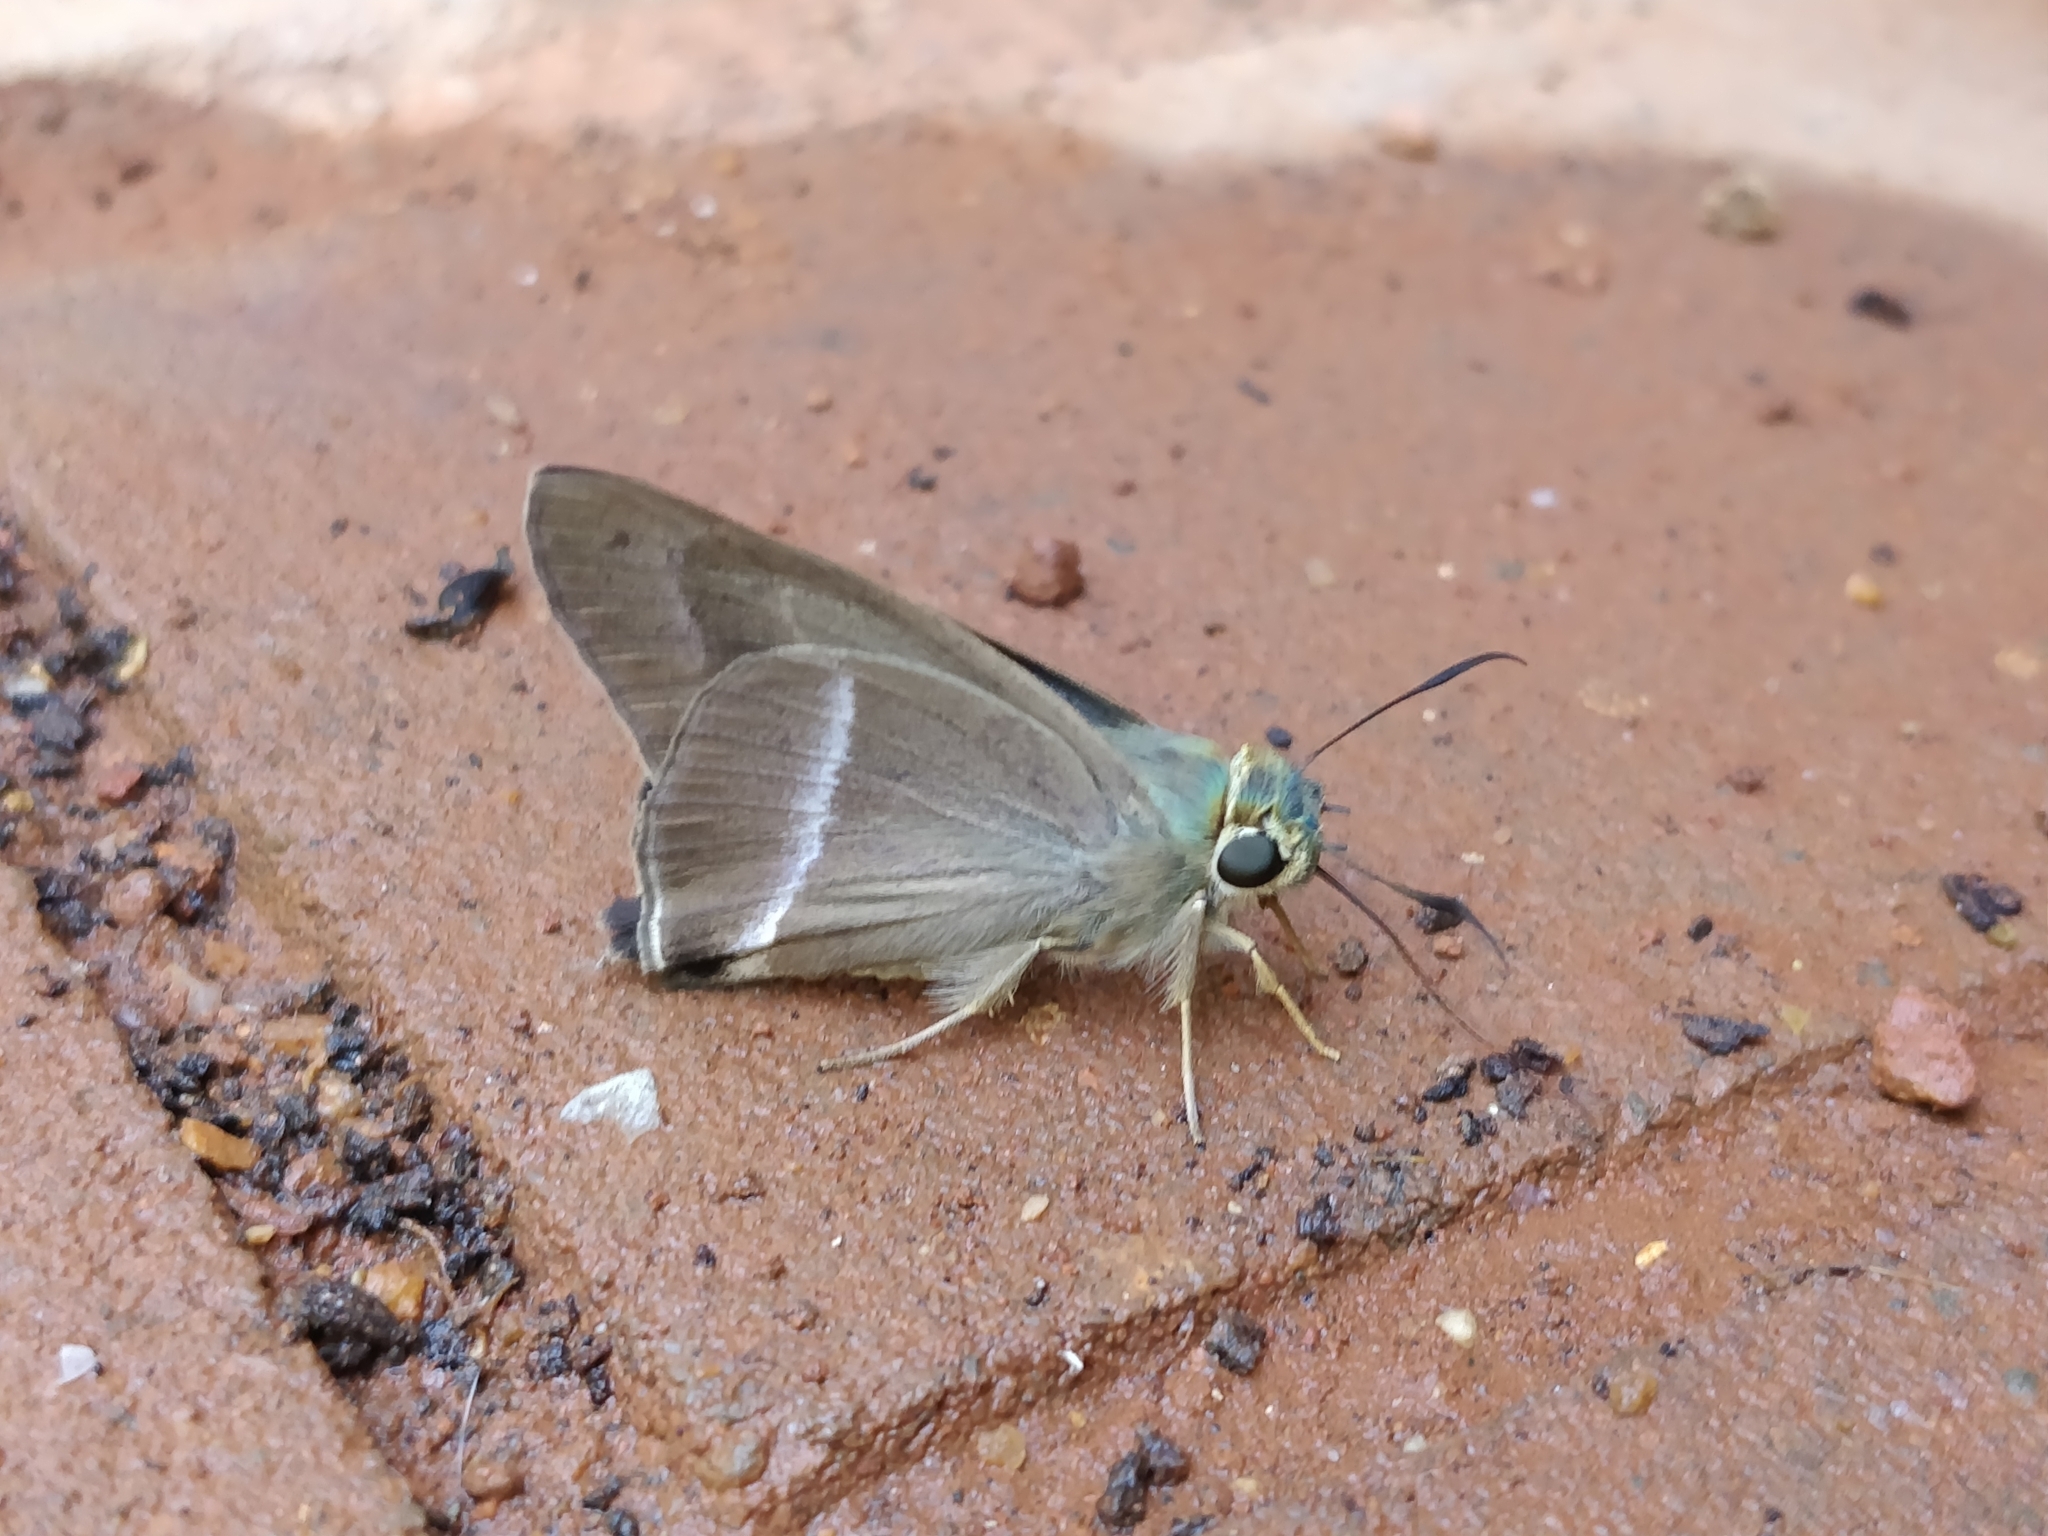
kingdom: Animalia
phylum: Arthropoda
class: Insecta
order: Lepidoptera
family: Hesperiidae
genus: Hasora
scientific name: Hasora chromus
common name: Common banded awl
